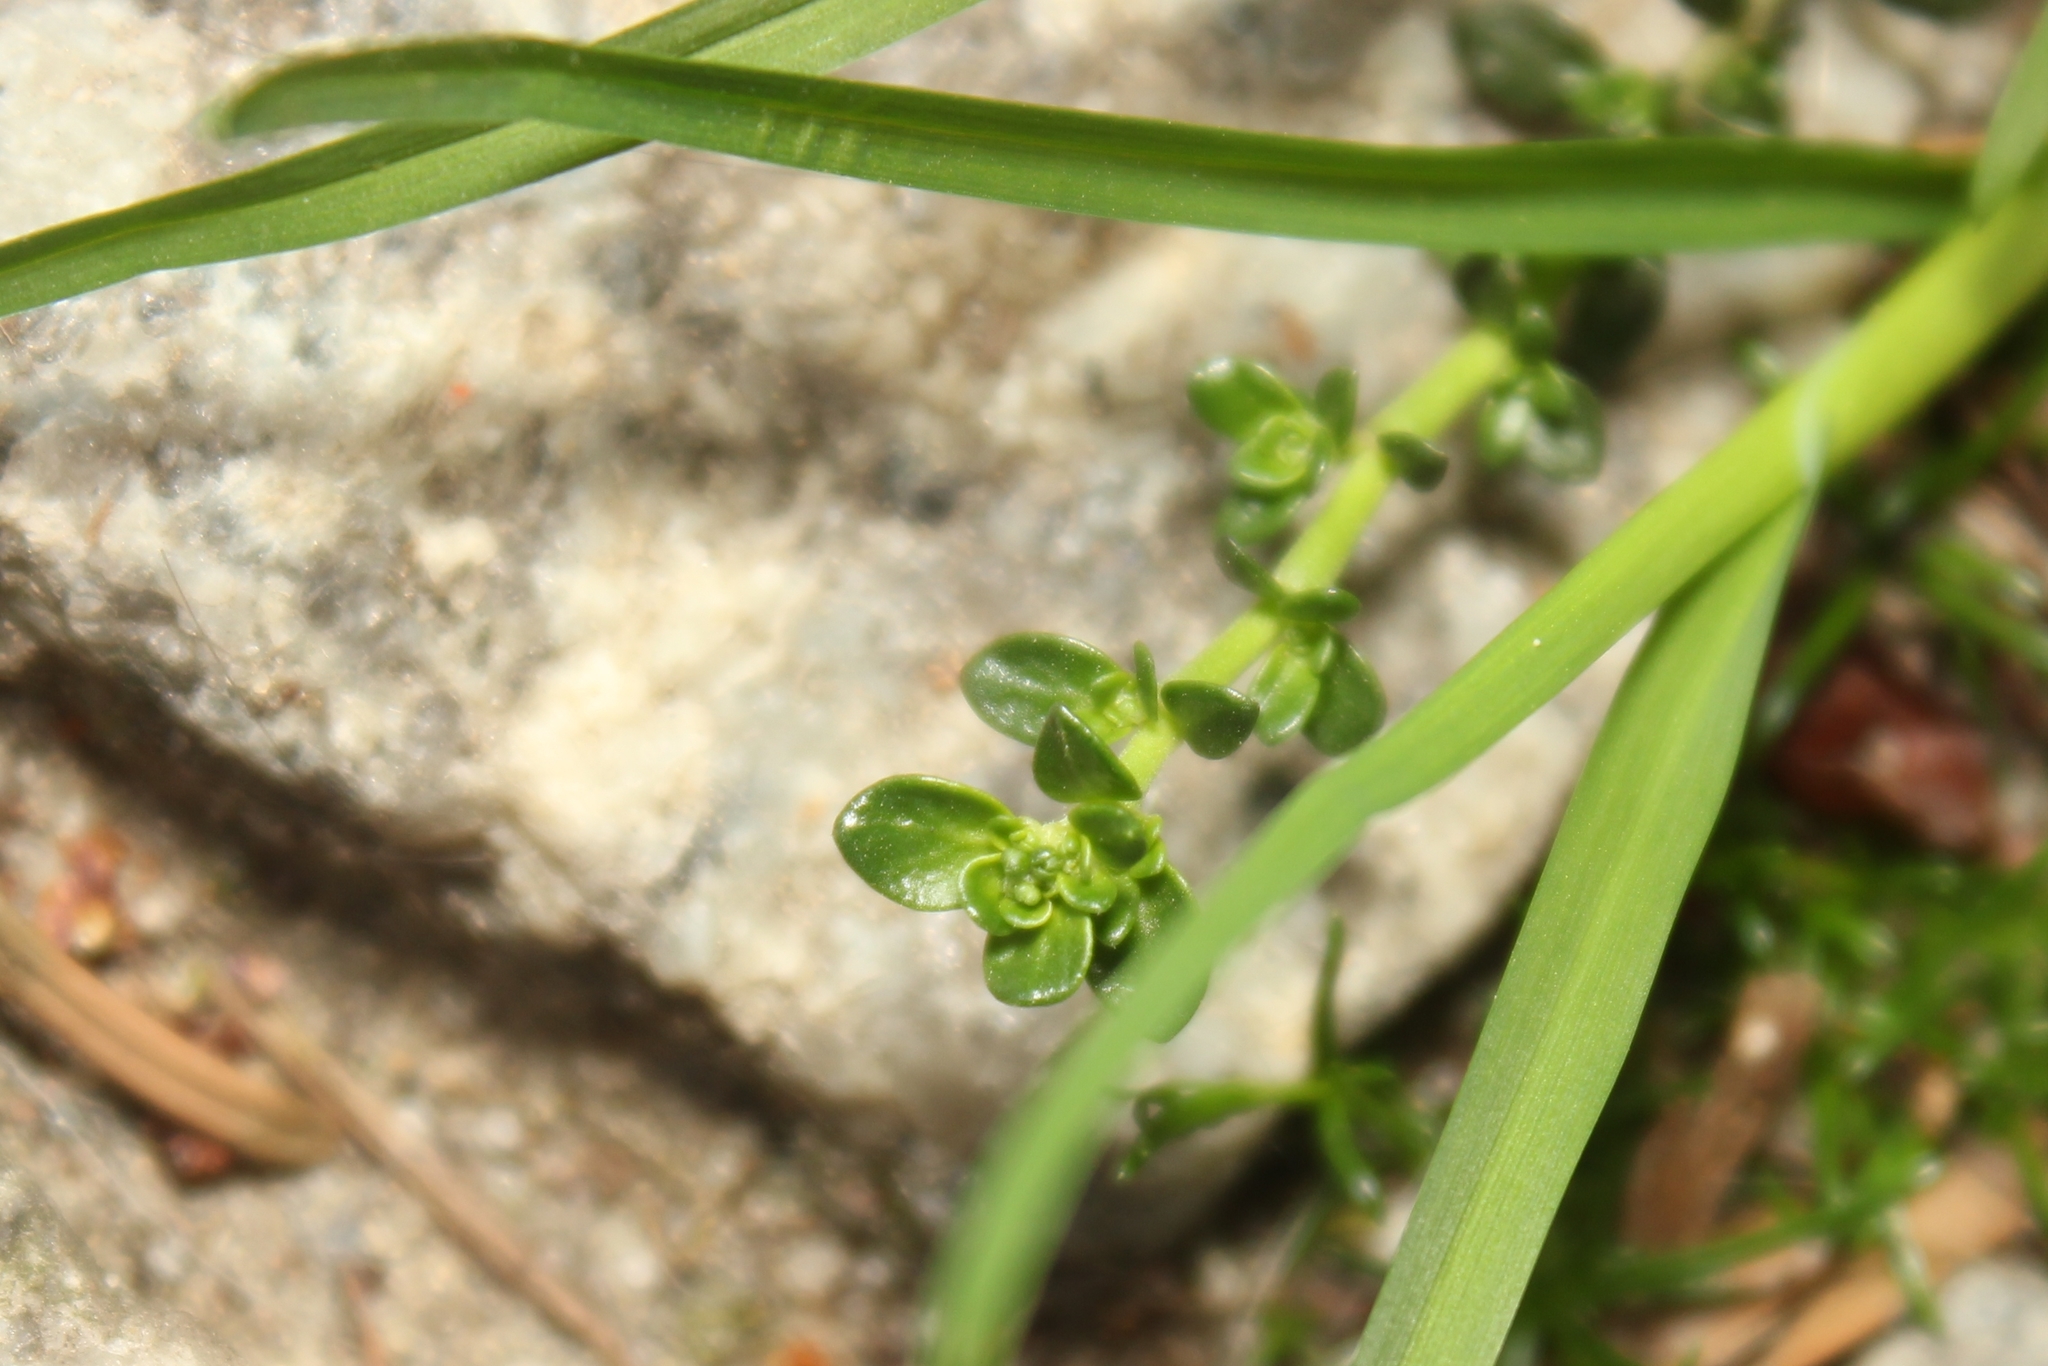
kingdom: Plantae
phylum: Tracheophyta
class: Magnoliopsida
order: Caryophyllales
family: Caryophyllaceae
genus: Herniaria
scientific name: Herniaria glabra
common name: Smooth rupturewort
